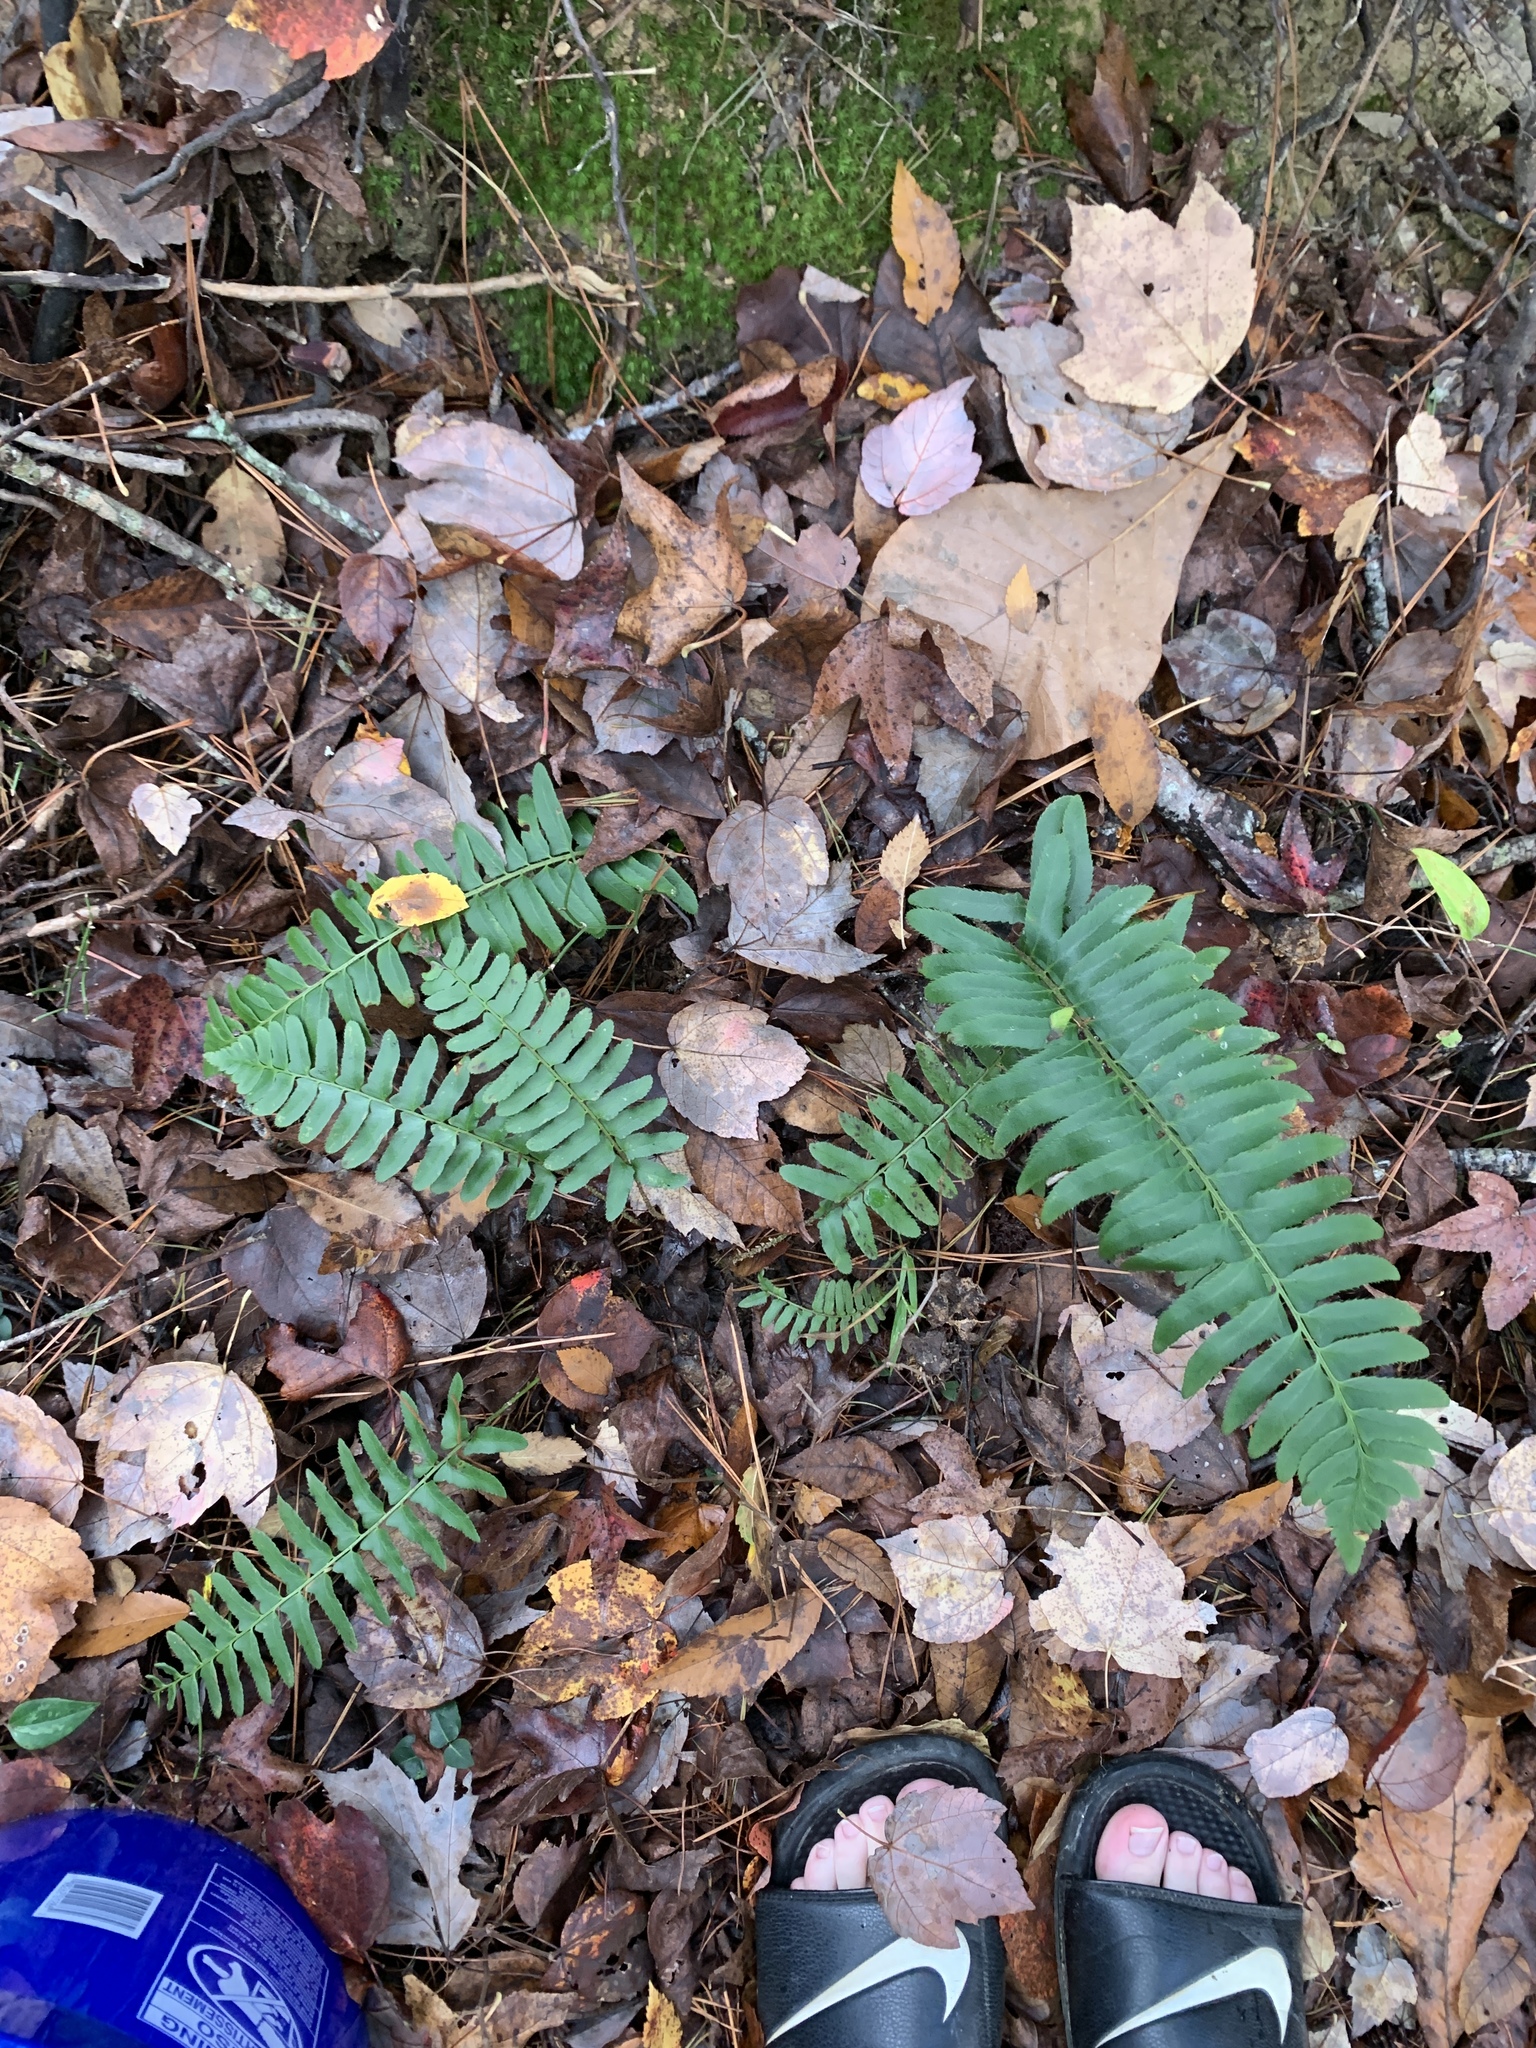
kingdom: Plantae
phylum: Tracheophyta
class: Polypodiopsida
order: Polypodiales
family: Dryopteridaceae
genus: Polystichum
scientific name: Polystichum acrostichoides
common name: Christmas fern
